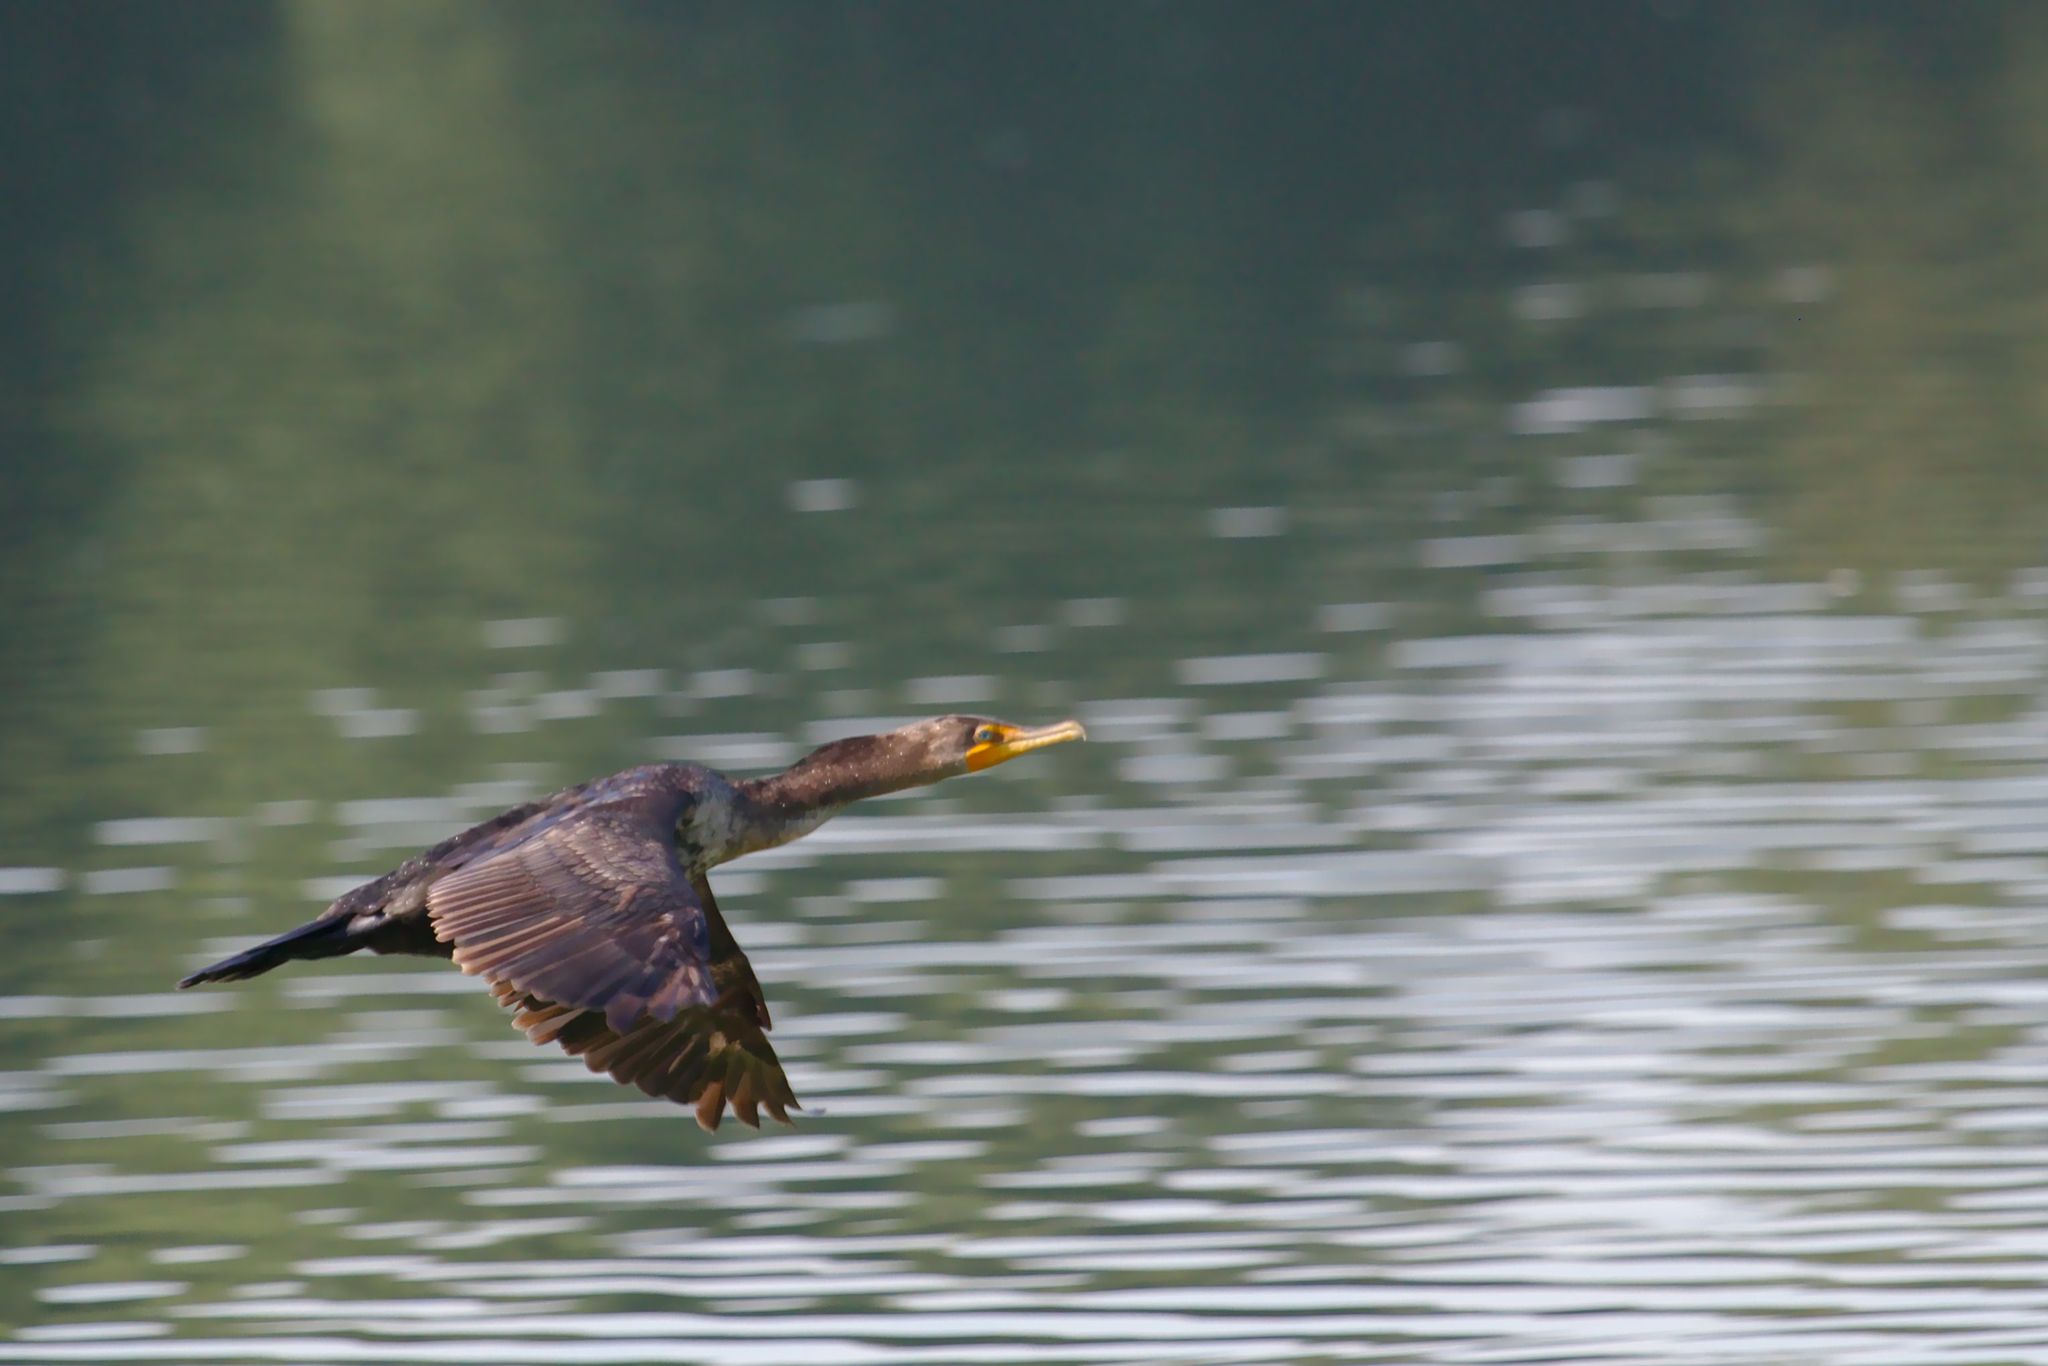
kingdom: Animalia
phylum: Chordata
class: Aves
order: Suliformes
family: Phalacrocoracidae
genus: Phalacrocorax
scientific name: Phalacrocorax auritus
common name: Double-crested cormorant
